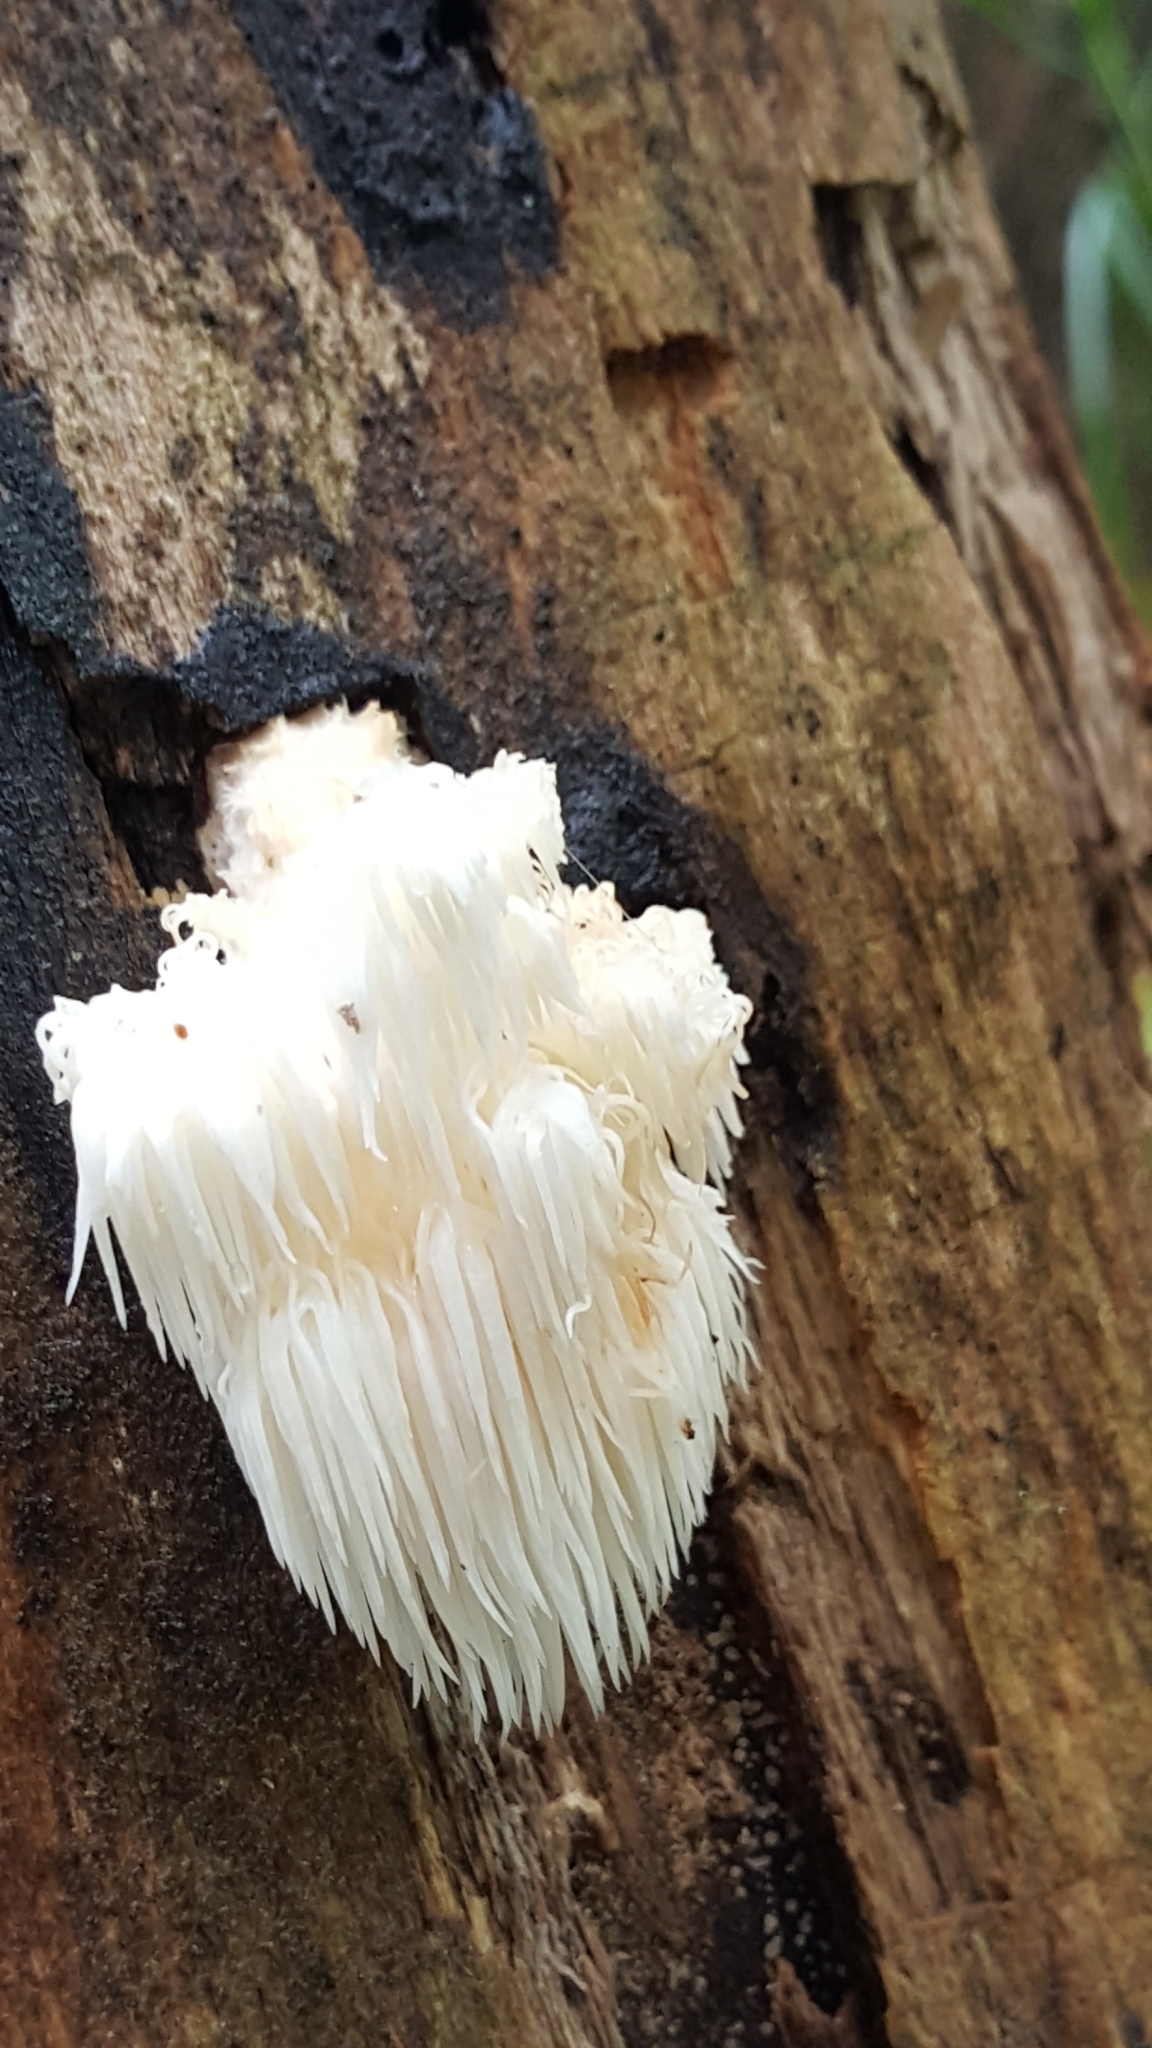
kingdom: Fungi
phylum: Basidiomycota
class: Agaricomycetes
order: Russulales
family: Hericiaceae
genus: Hericium
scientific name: Hericium americanum
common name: Bear's head tooth
